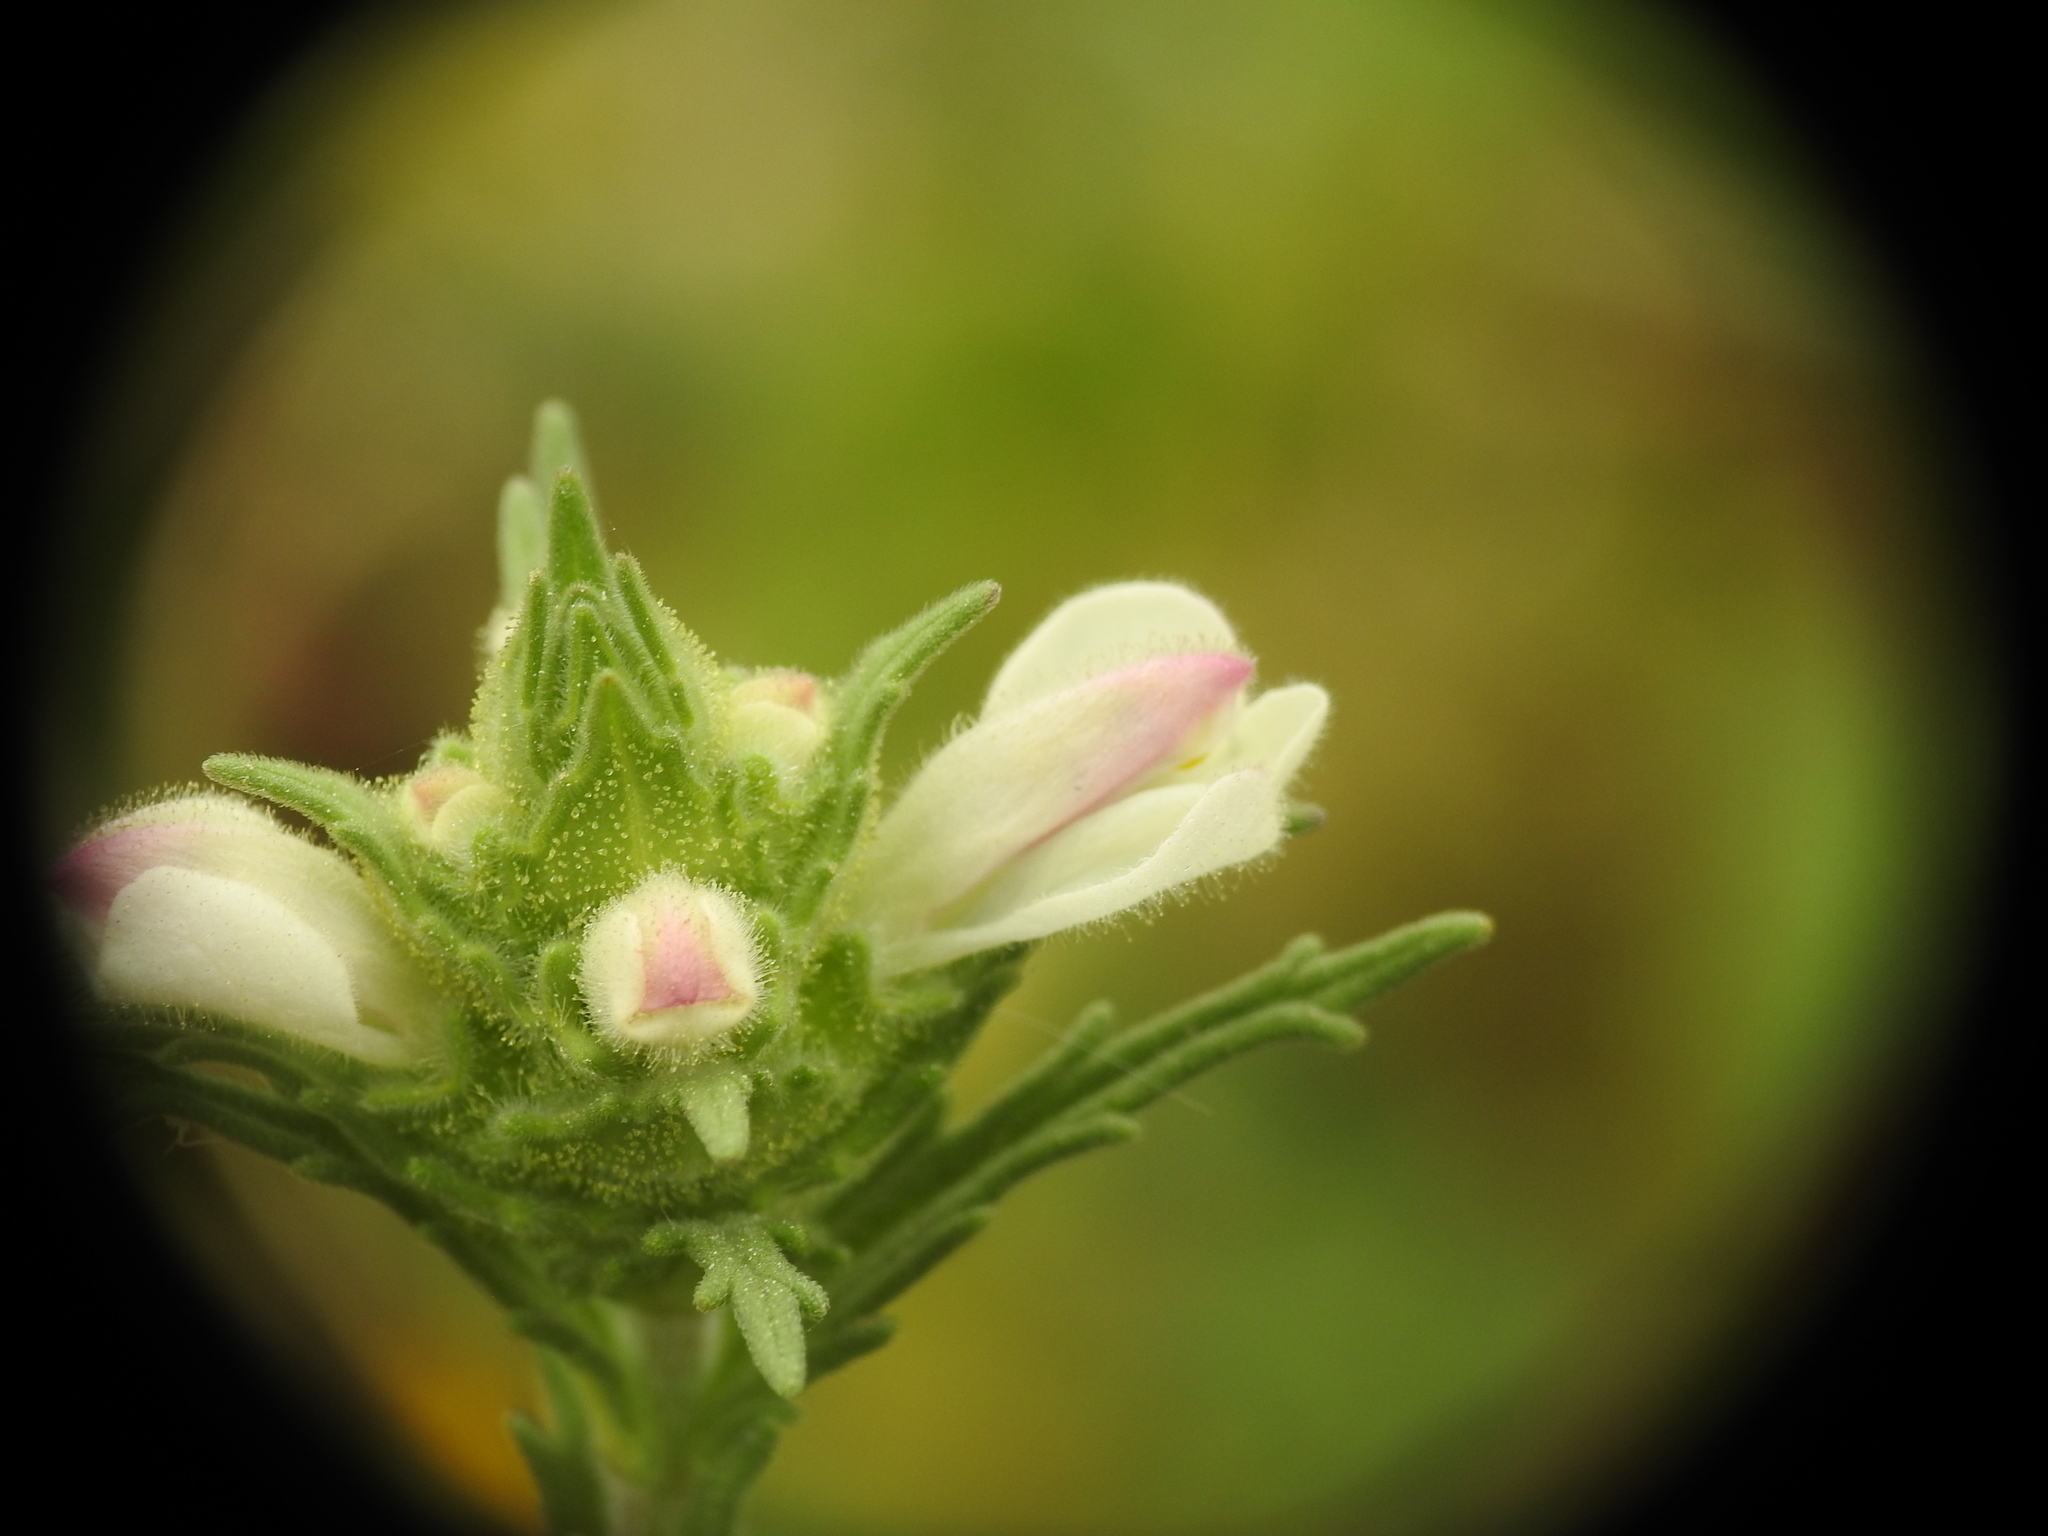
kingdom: Plantae
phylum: Tracheophyta
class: Magnoliopsida
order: Lamiales
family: Orobanchaceae
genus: Bellardia
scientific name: Bellardia trixago
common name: Mediterranean lineseed
